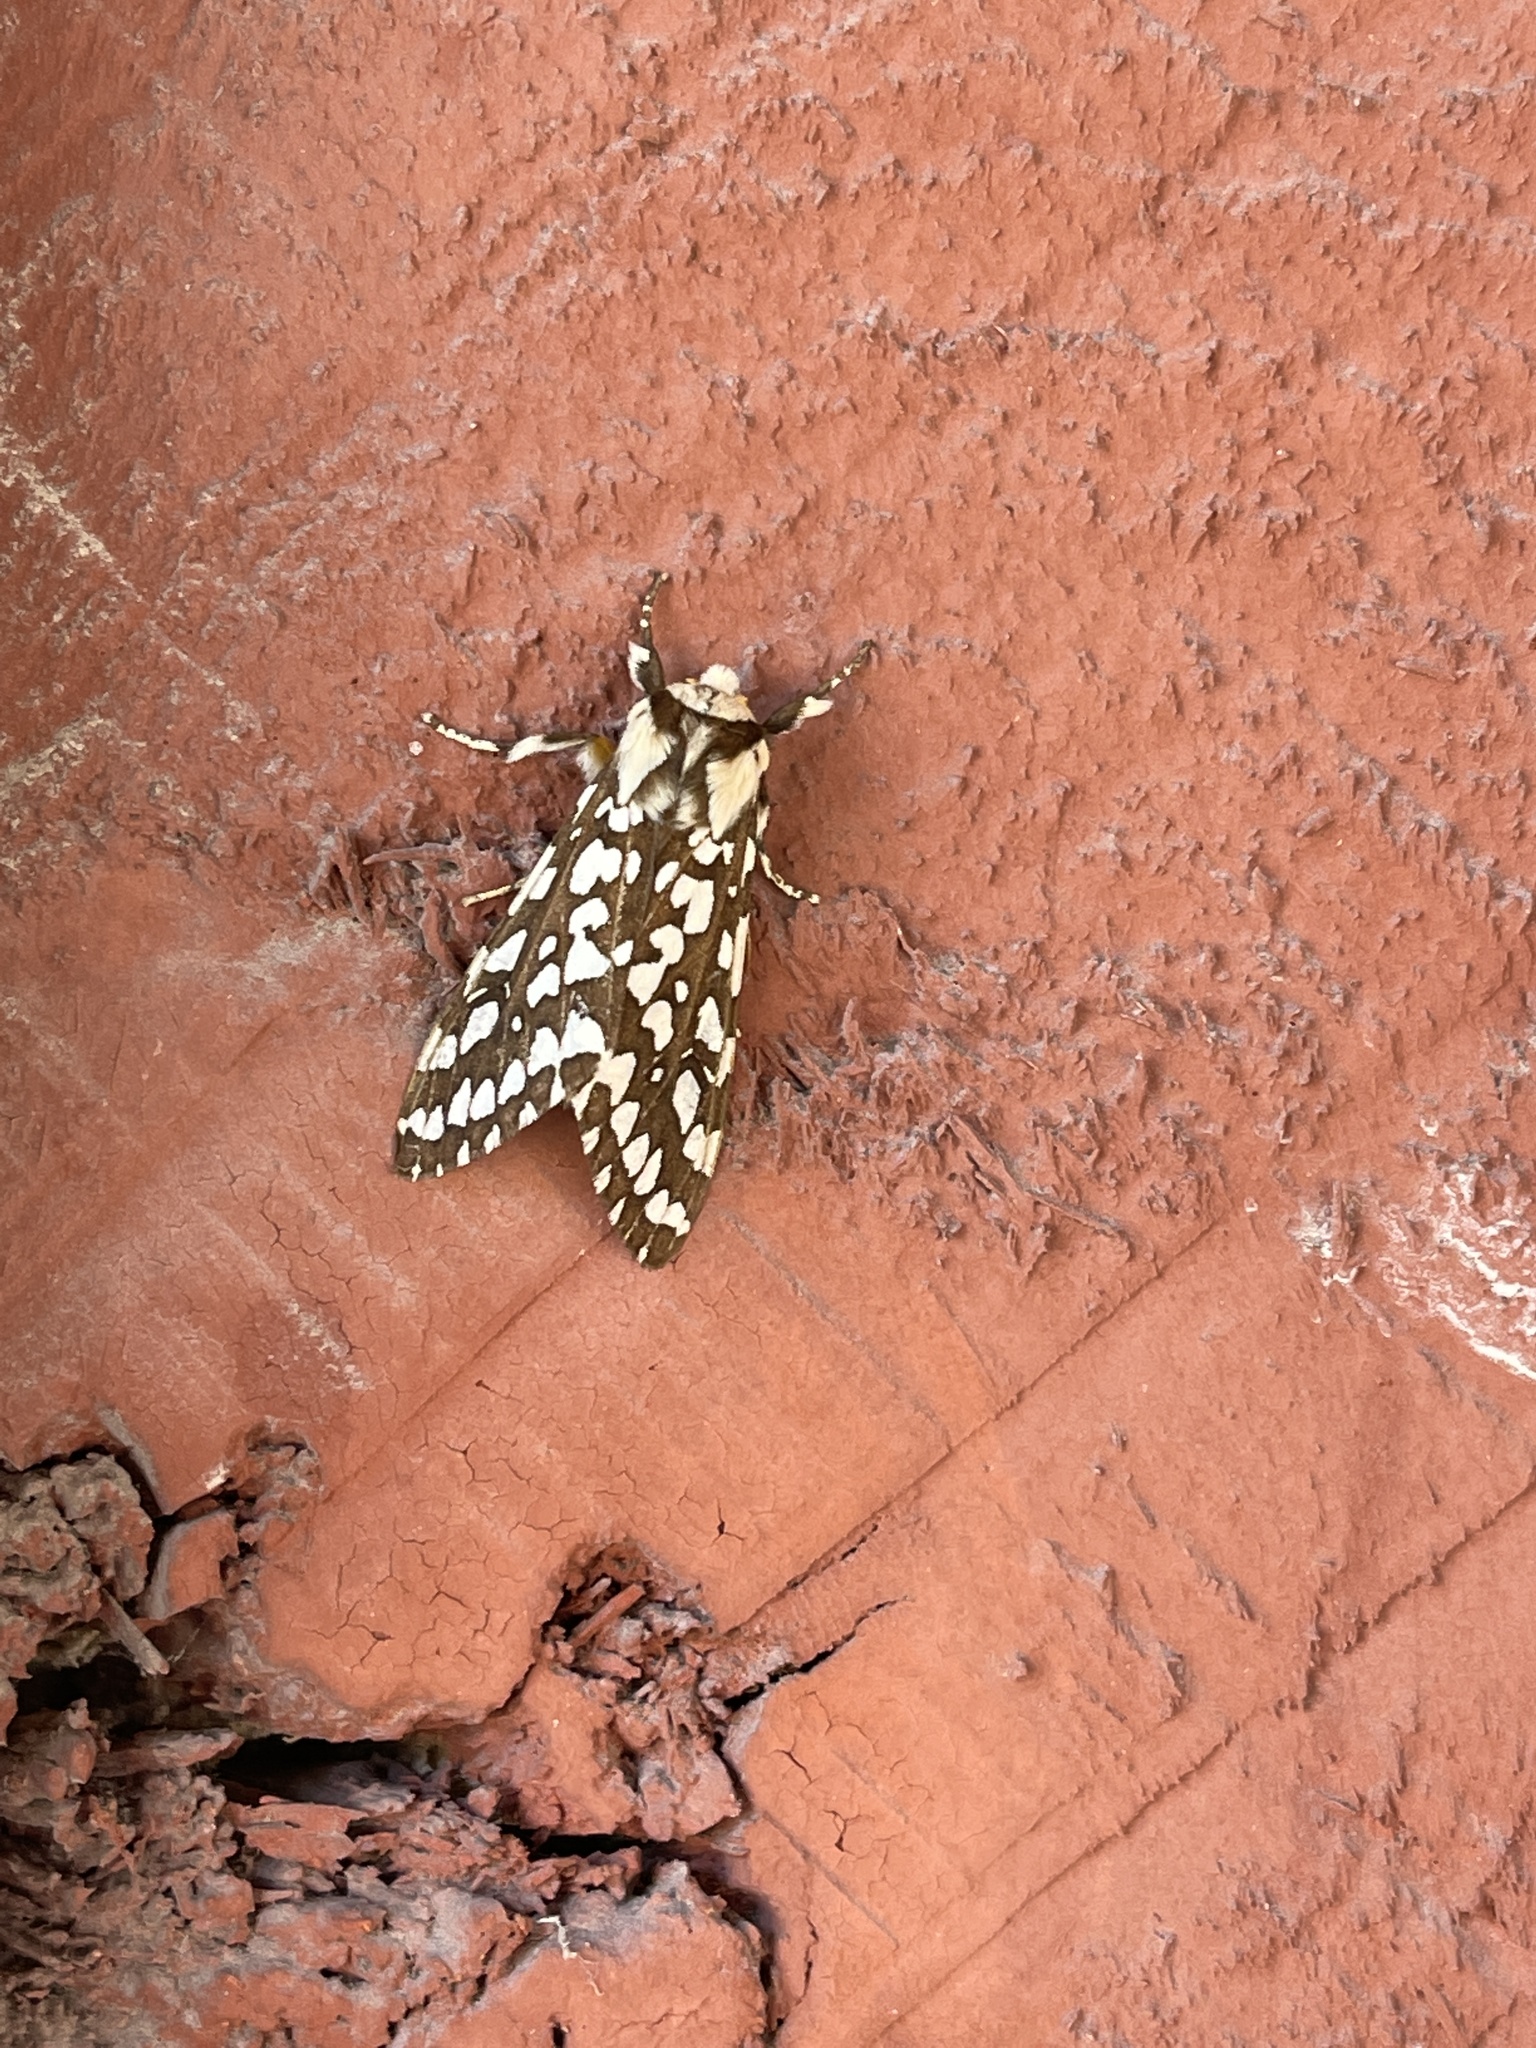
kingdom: Animalia
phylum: Arthropoda
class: Insecta
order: Lepidoptera
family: Erebidae
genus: Lophocampa
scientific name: Lophocampa argentata
